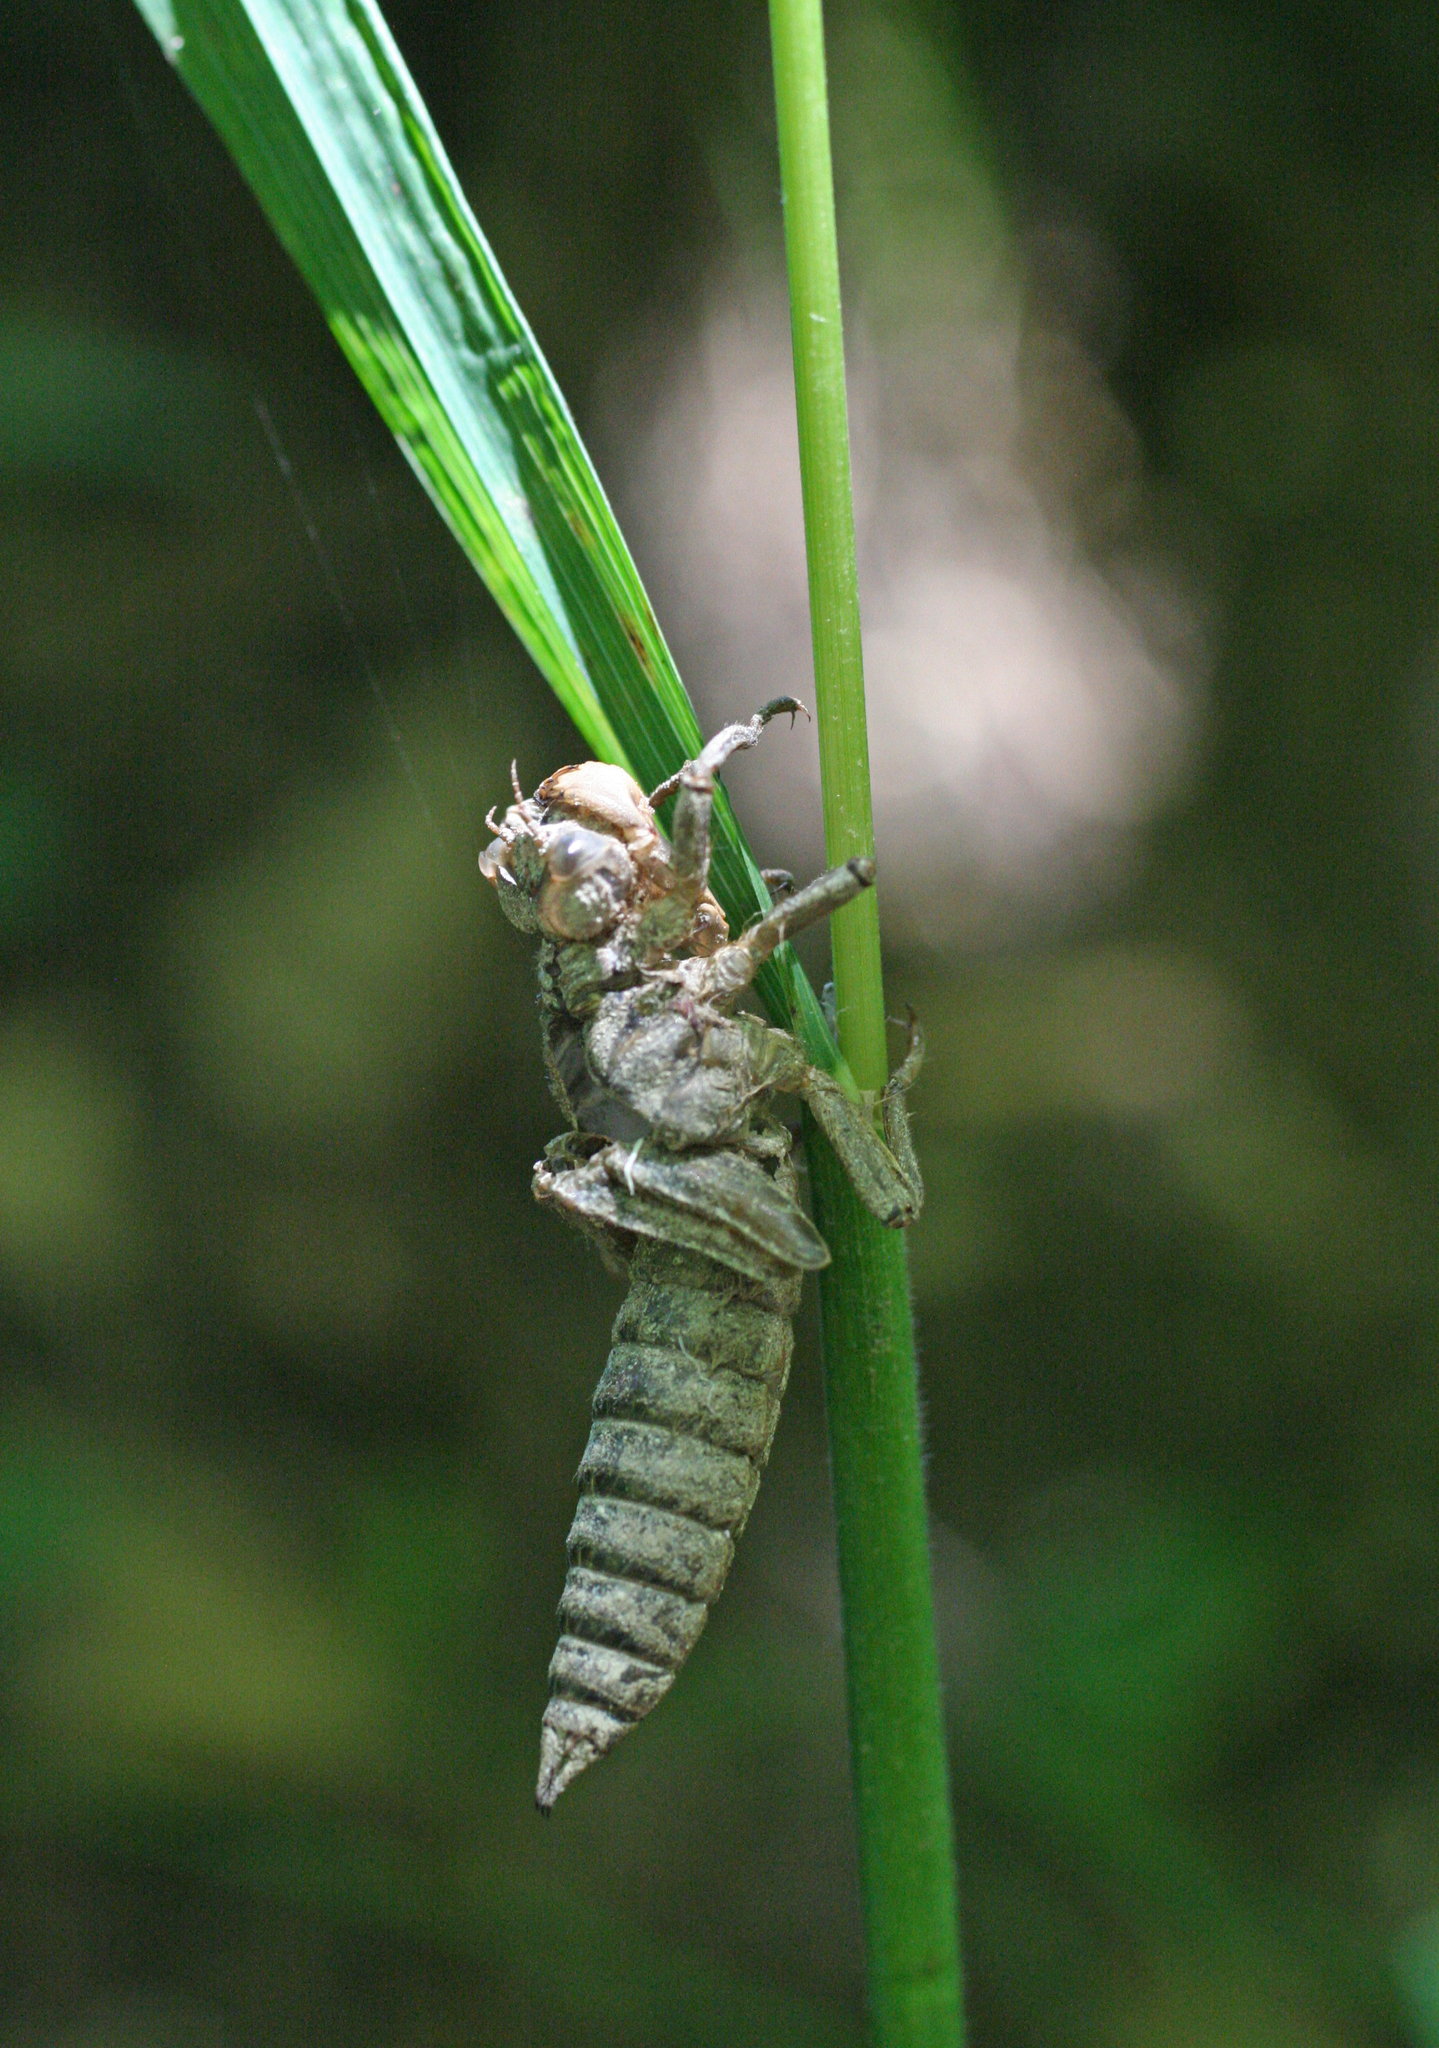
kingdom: Animalia
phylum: Arthropoda
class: Insecta
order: Odonata
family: Cordulegastridae
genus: Cordulegaster
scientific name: Cordulegaster charpentieri
